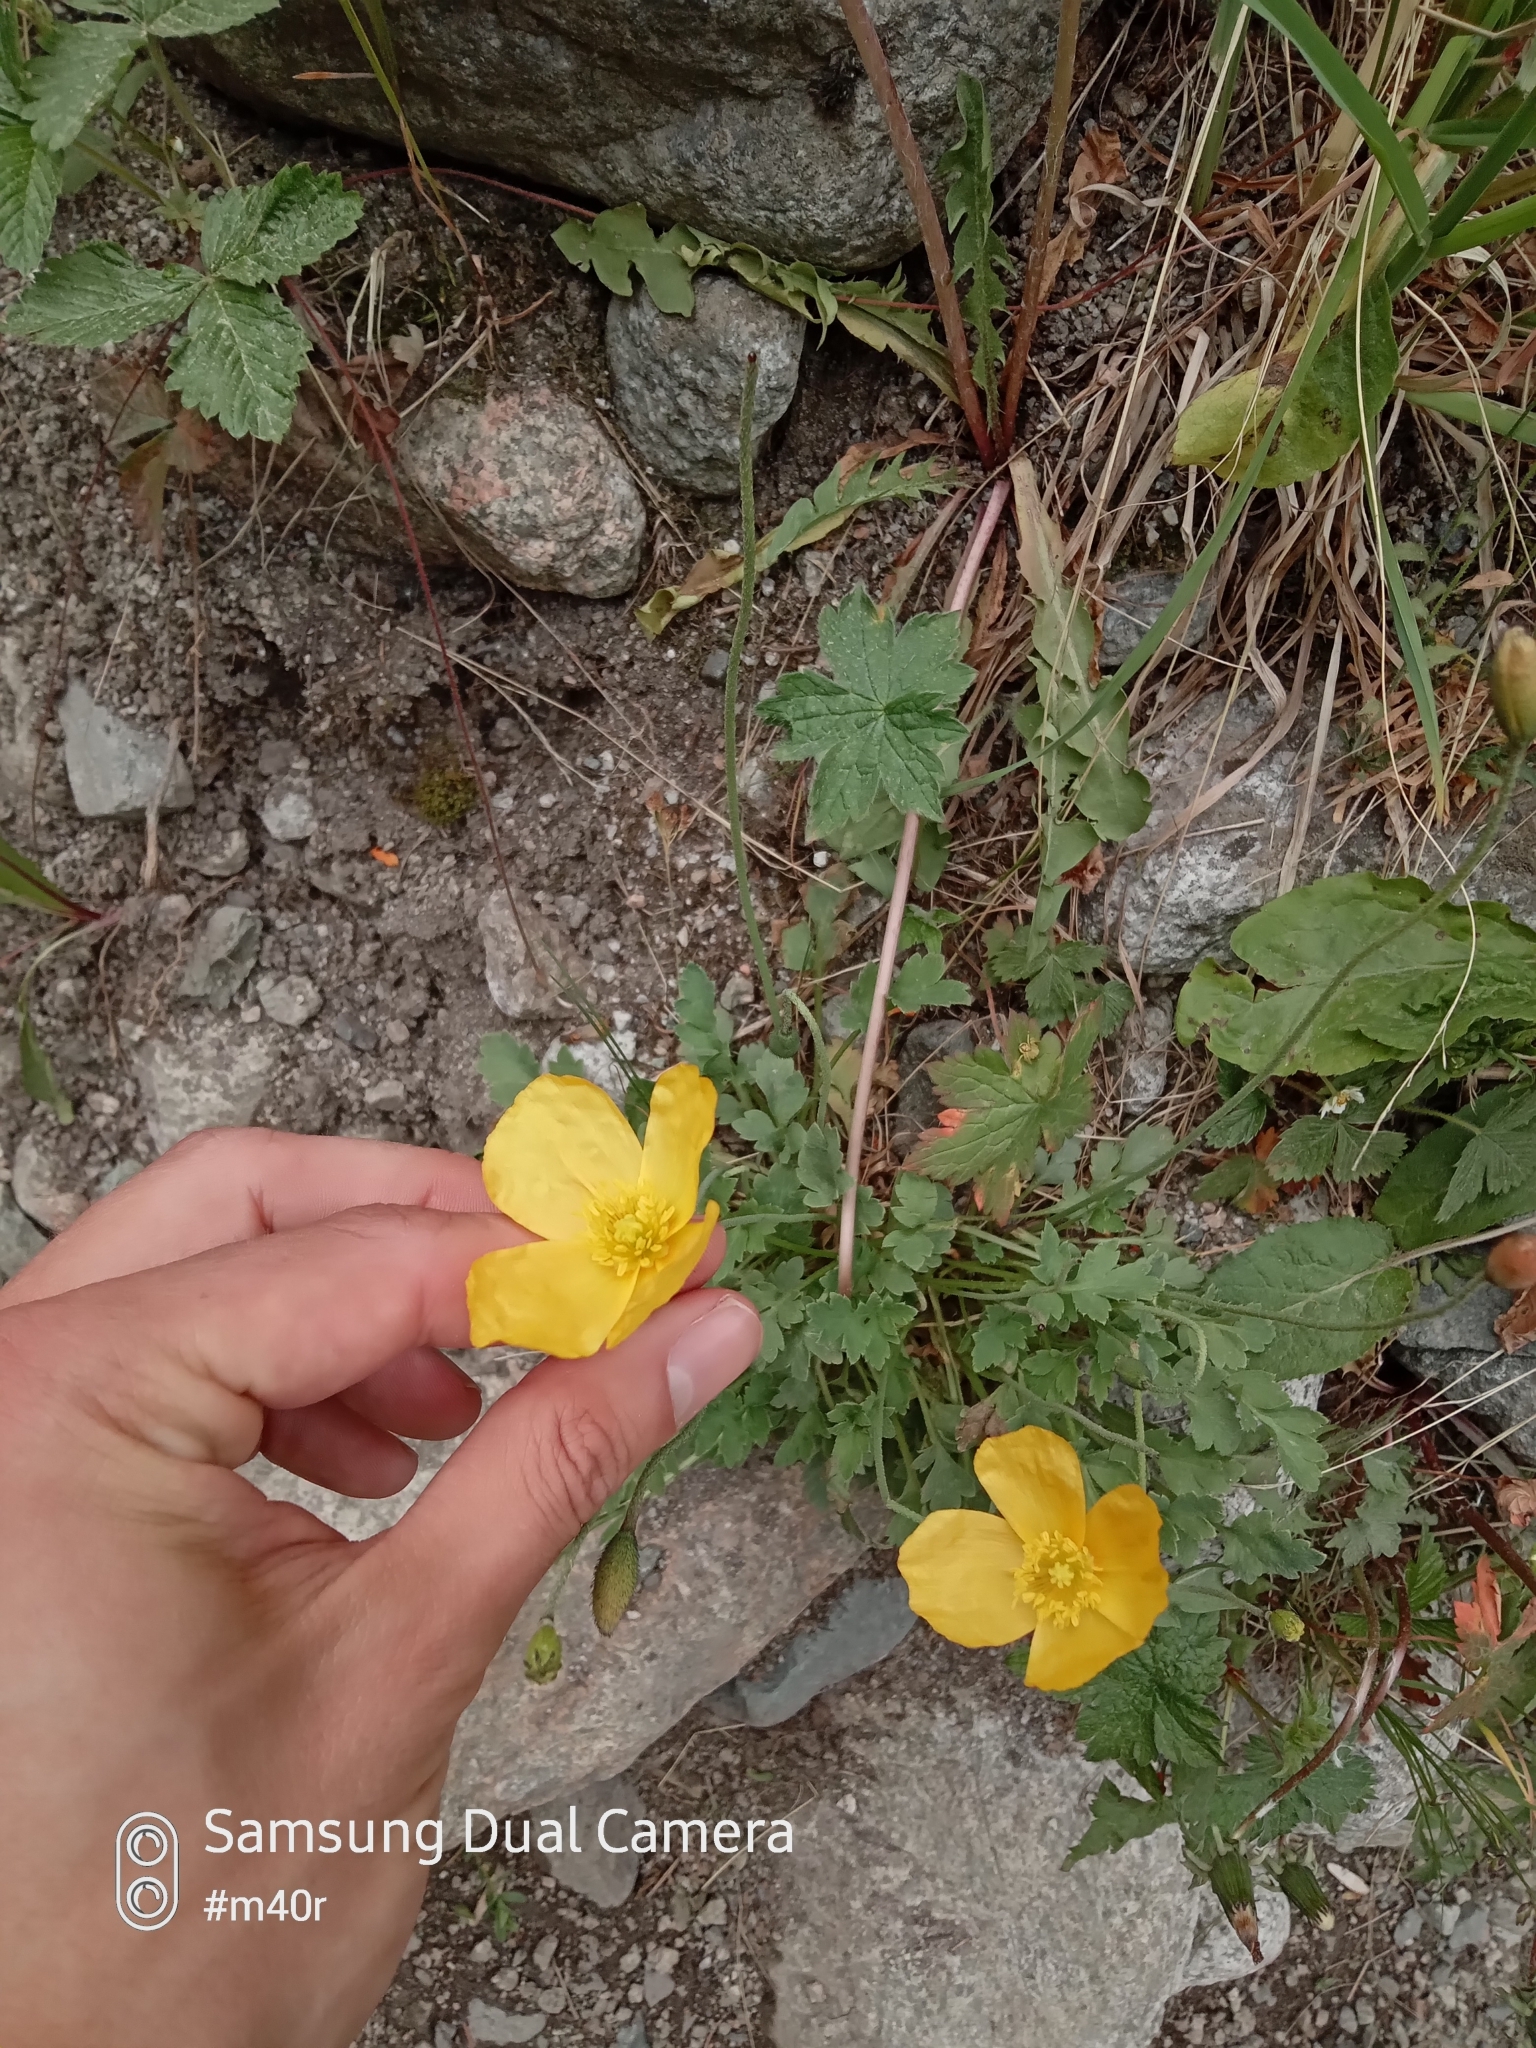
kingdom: Plantae
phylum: Tracheophyta
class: Magnoliopsida
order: Ranunculales
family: Papaveraceae
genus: Oreomecon
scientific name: Oreomecon
